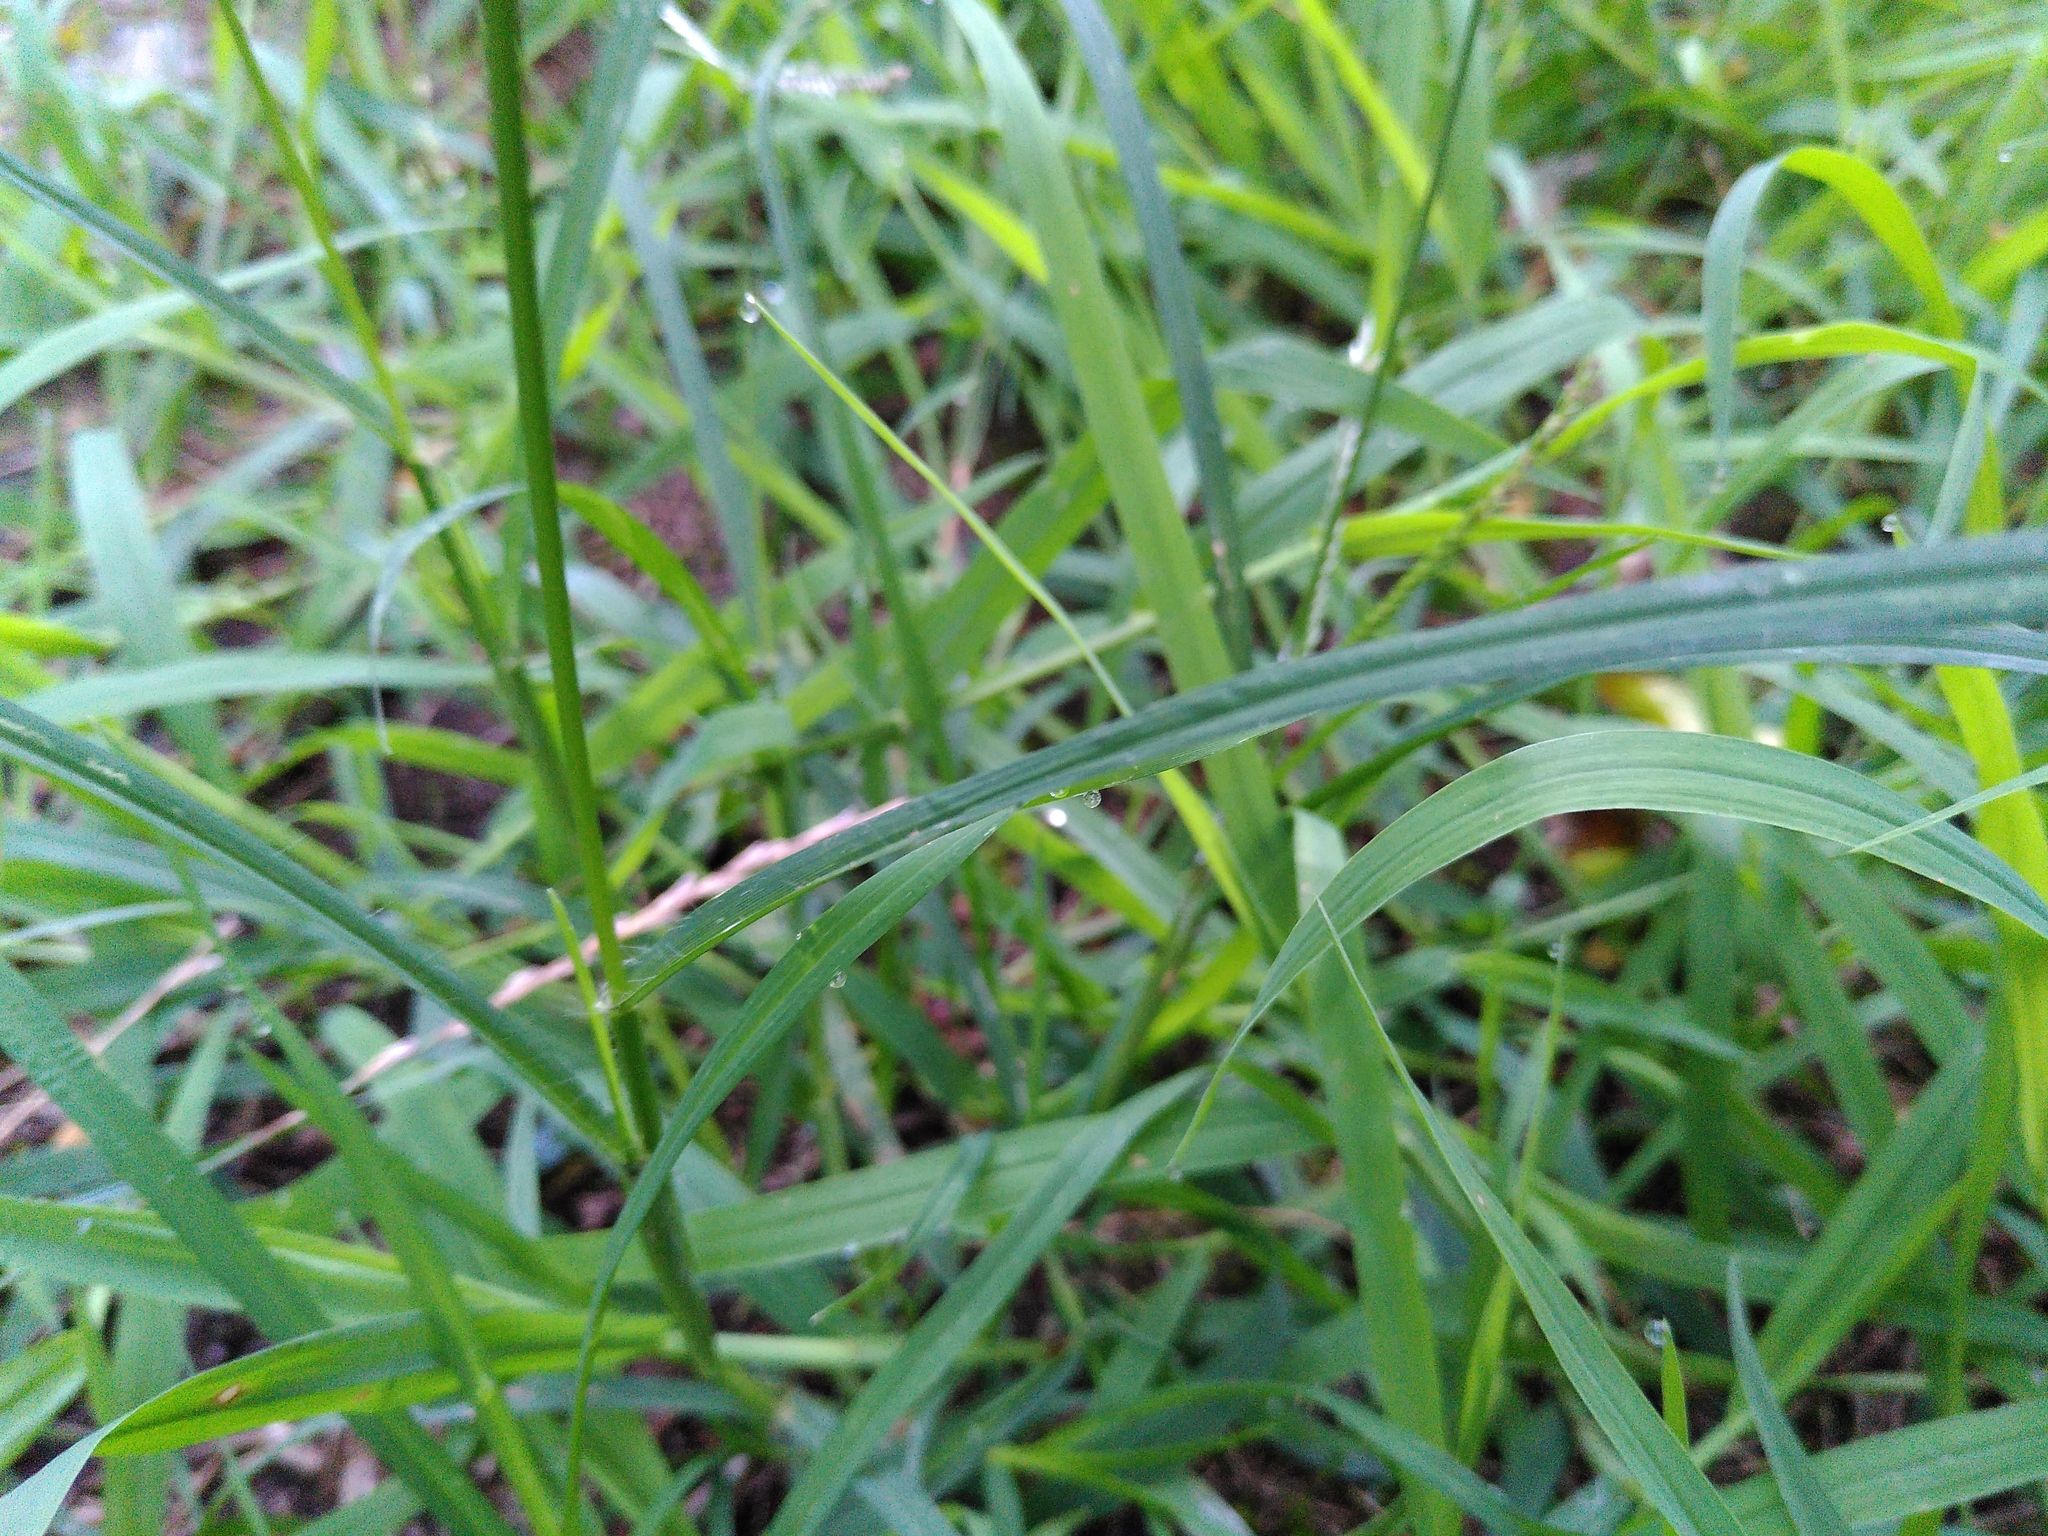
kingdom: Plantae
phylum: Tracheophyta
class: Liliopsida
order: Poales
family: Poaceae
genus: Eleusine
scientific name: Eleusine indica
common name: Yard-grass
